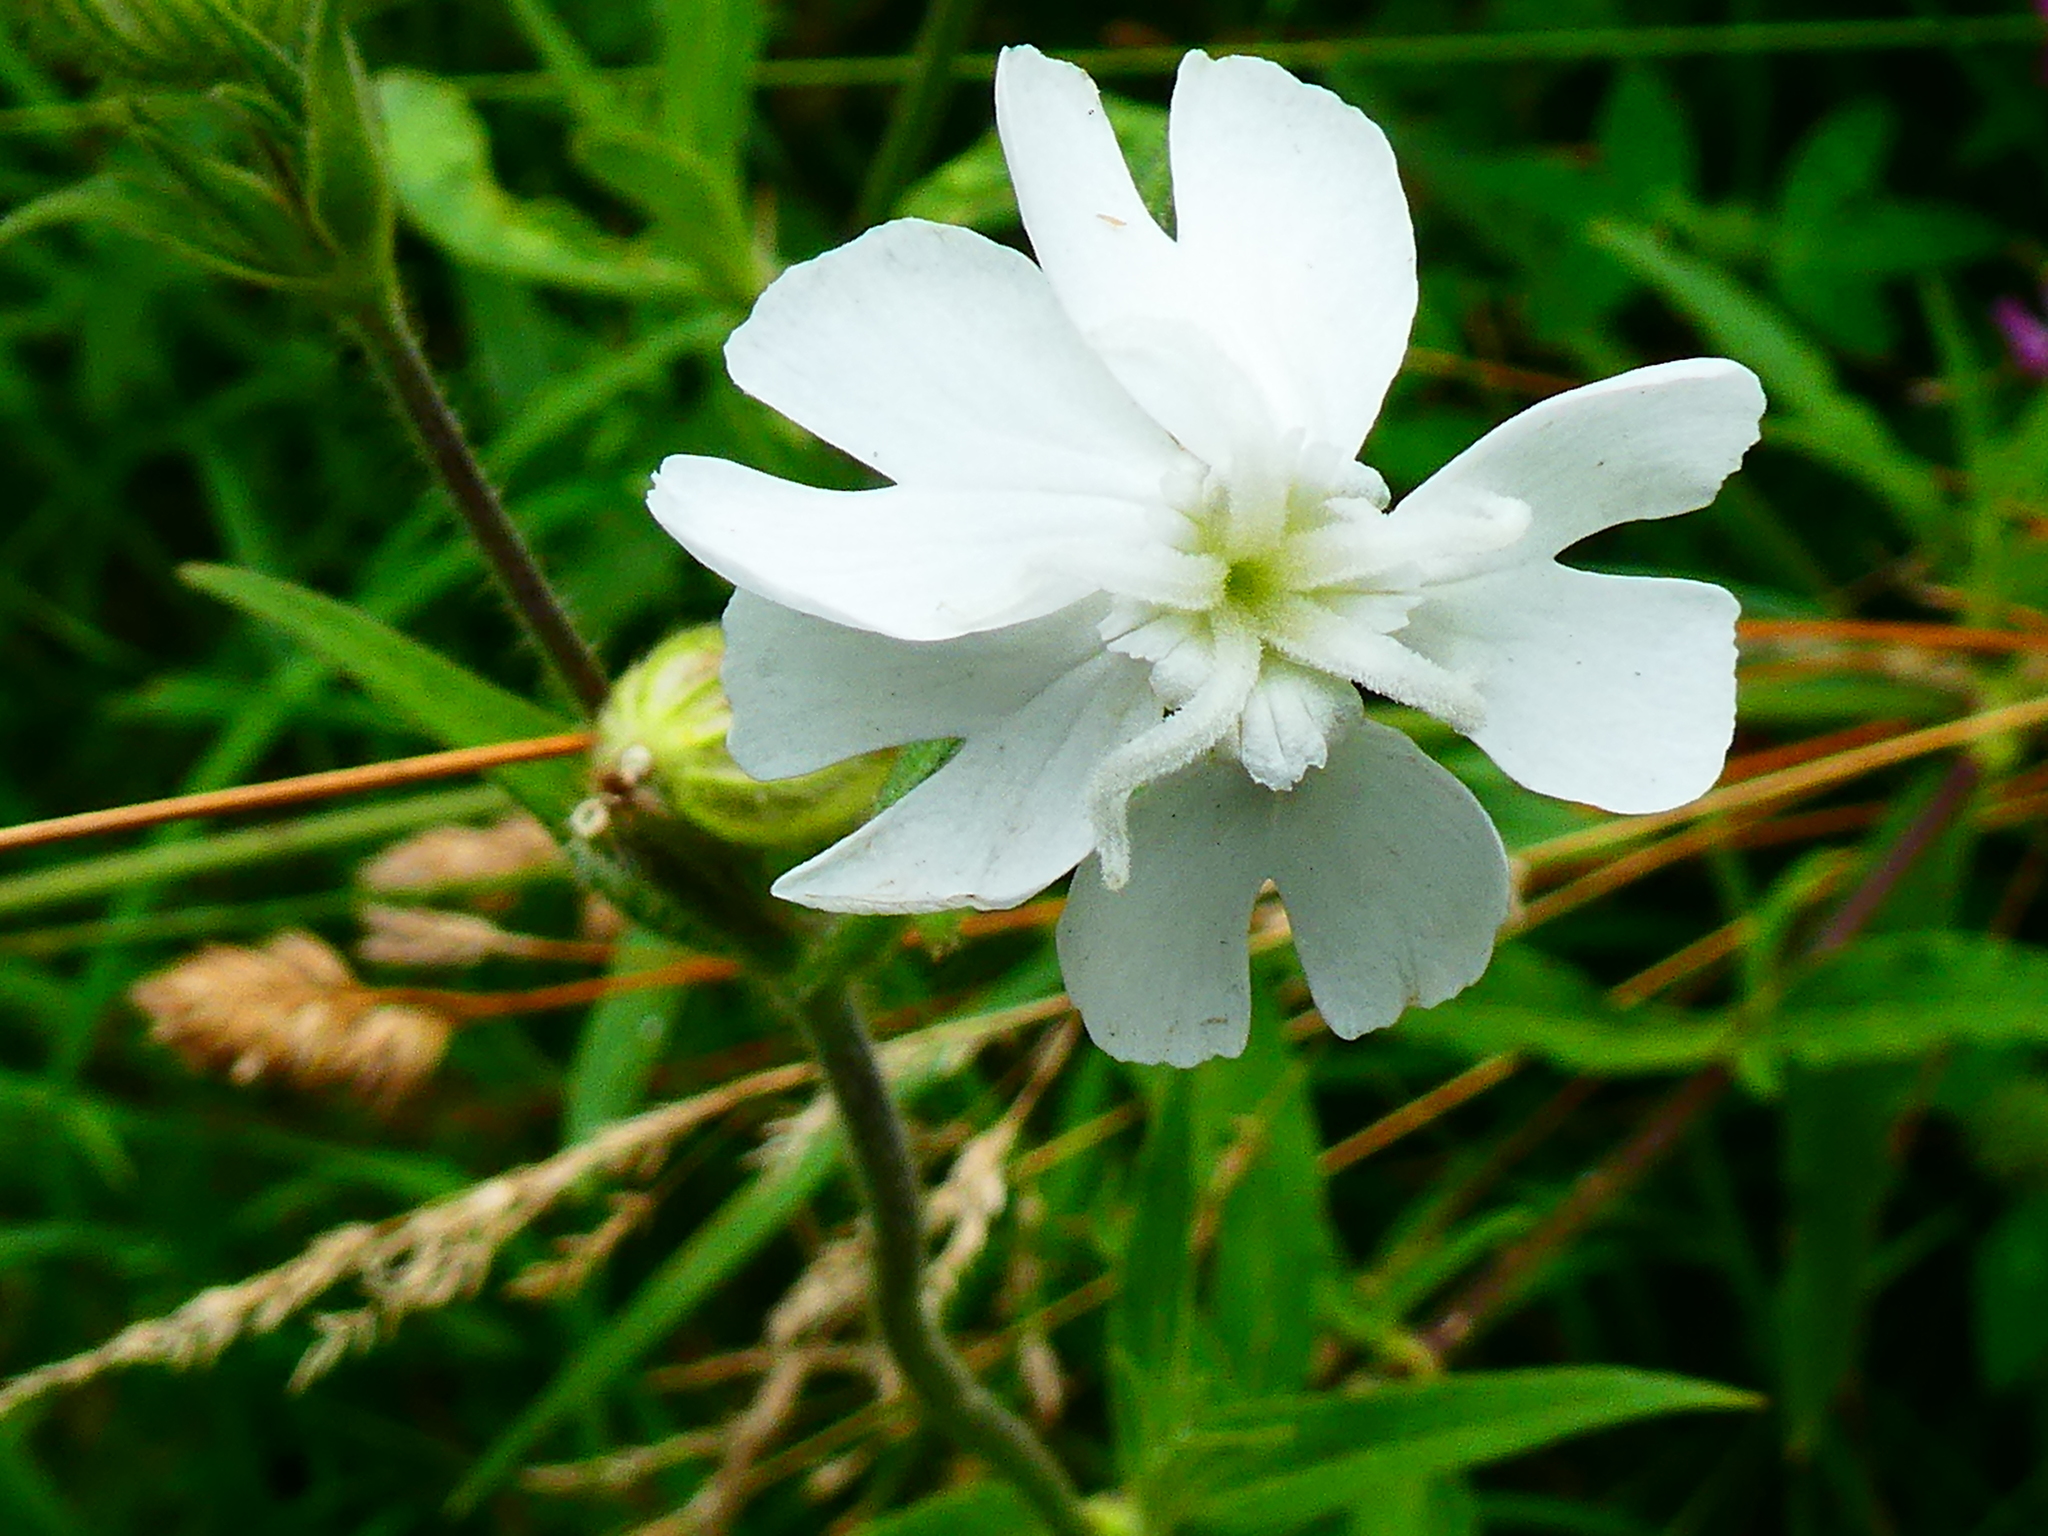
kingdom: Plantae
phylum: Tracheophyta
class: Magnoliopsida
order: Caryophyllales
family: Caryophyllaceae
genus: Silene
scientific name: Silene latifolia
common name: White campion
